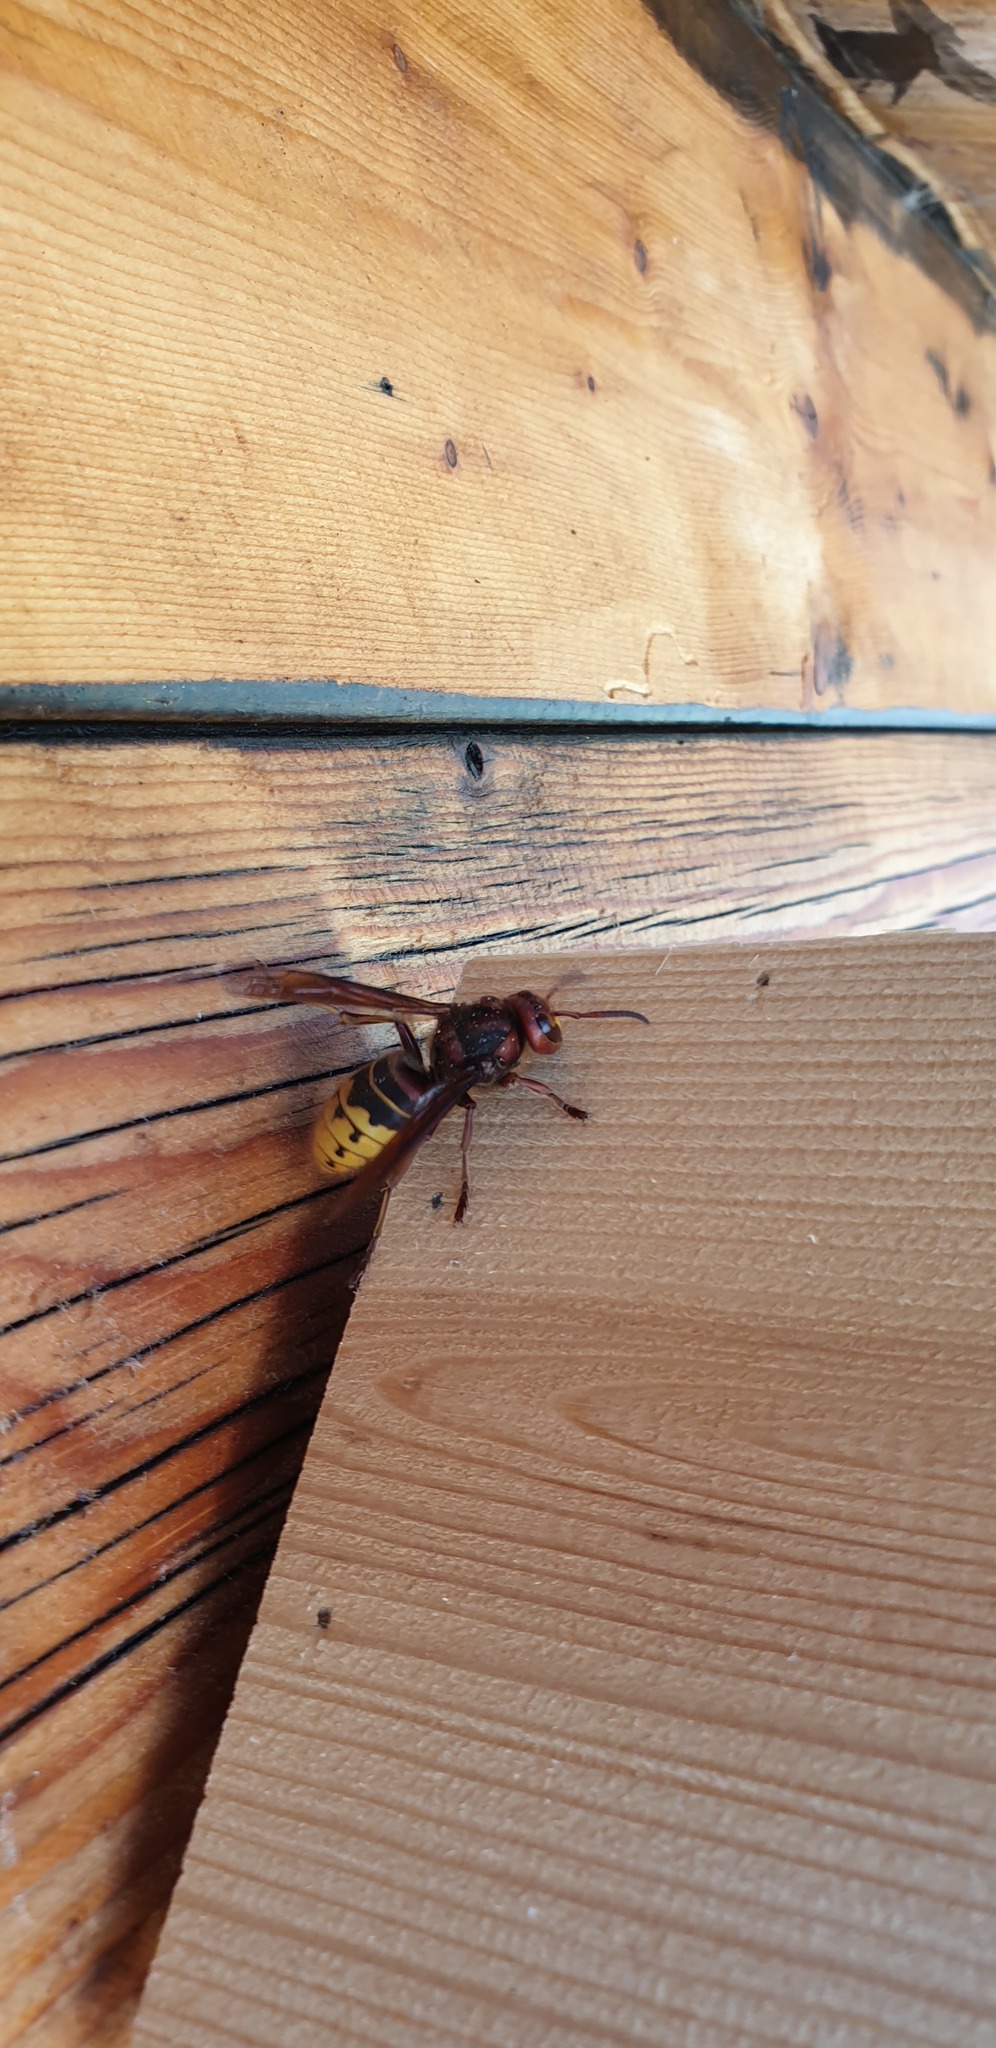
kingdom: Animalia
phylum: Arthropoda
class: Insecta
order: Hymenoptera
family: Vespidae
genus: Vespa
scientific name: Vespa crabro
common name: Hornet
